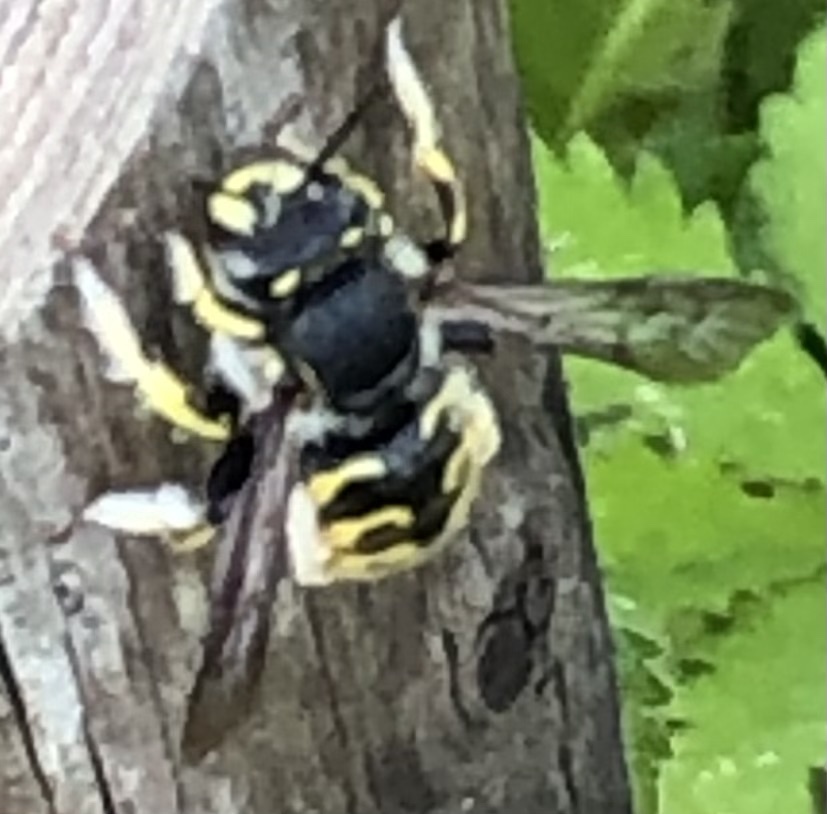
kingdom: Animalia
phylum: Arthropoda
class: Insecta
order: Hymenoptera
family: Megachilidae
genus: Anthidium
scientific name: Anthidium manicatum
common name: Wool carder bee
